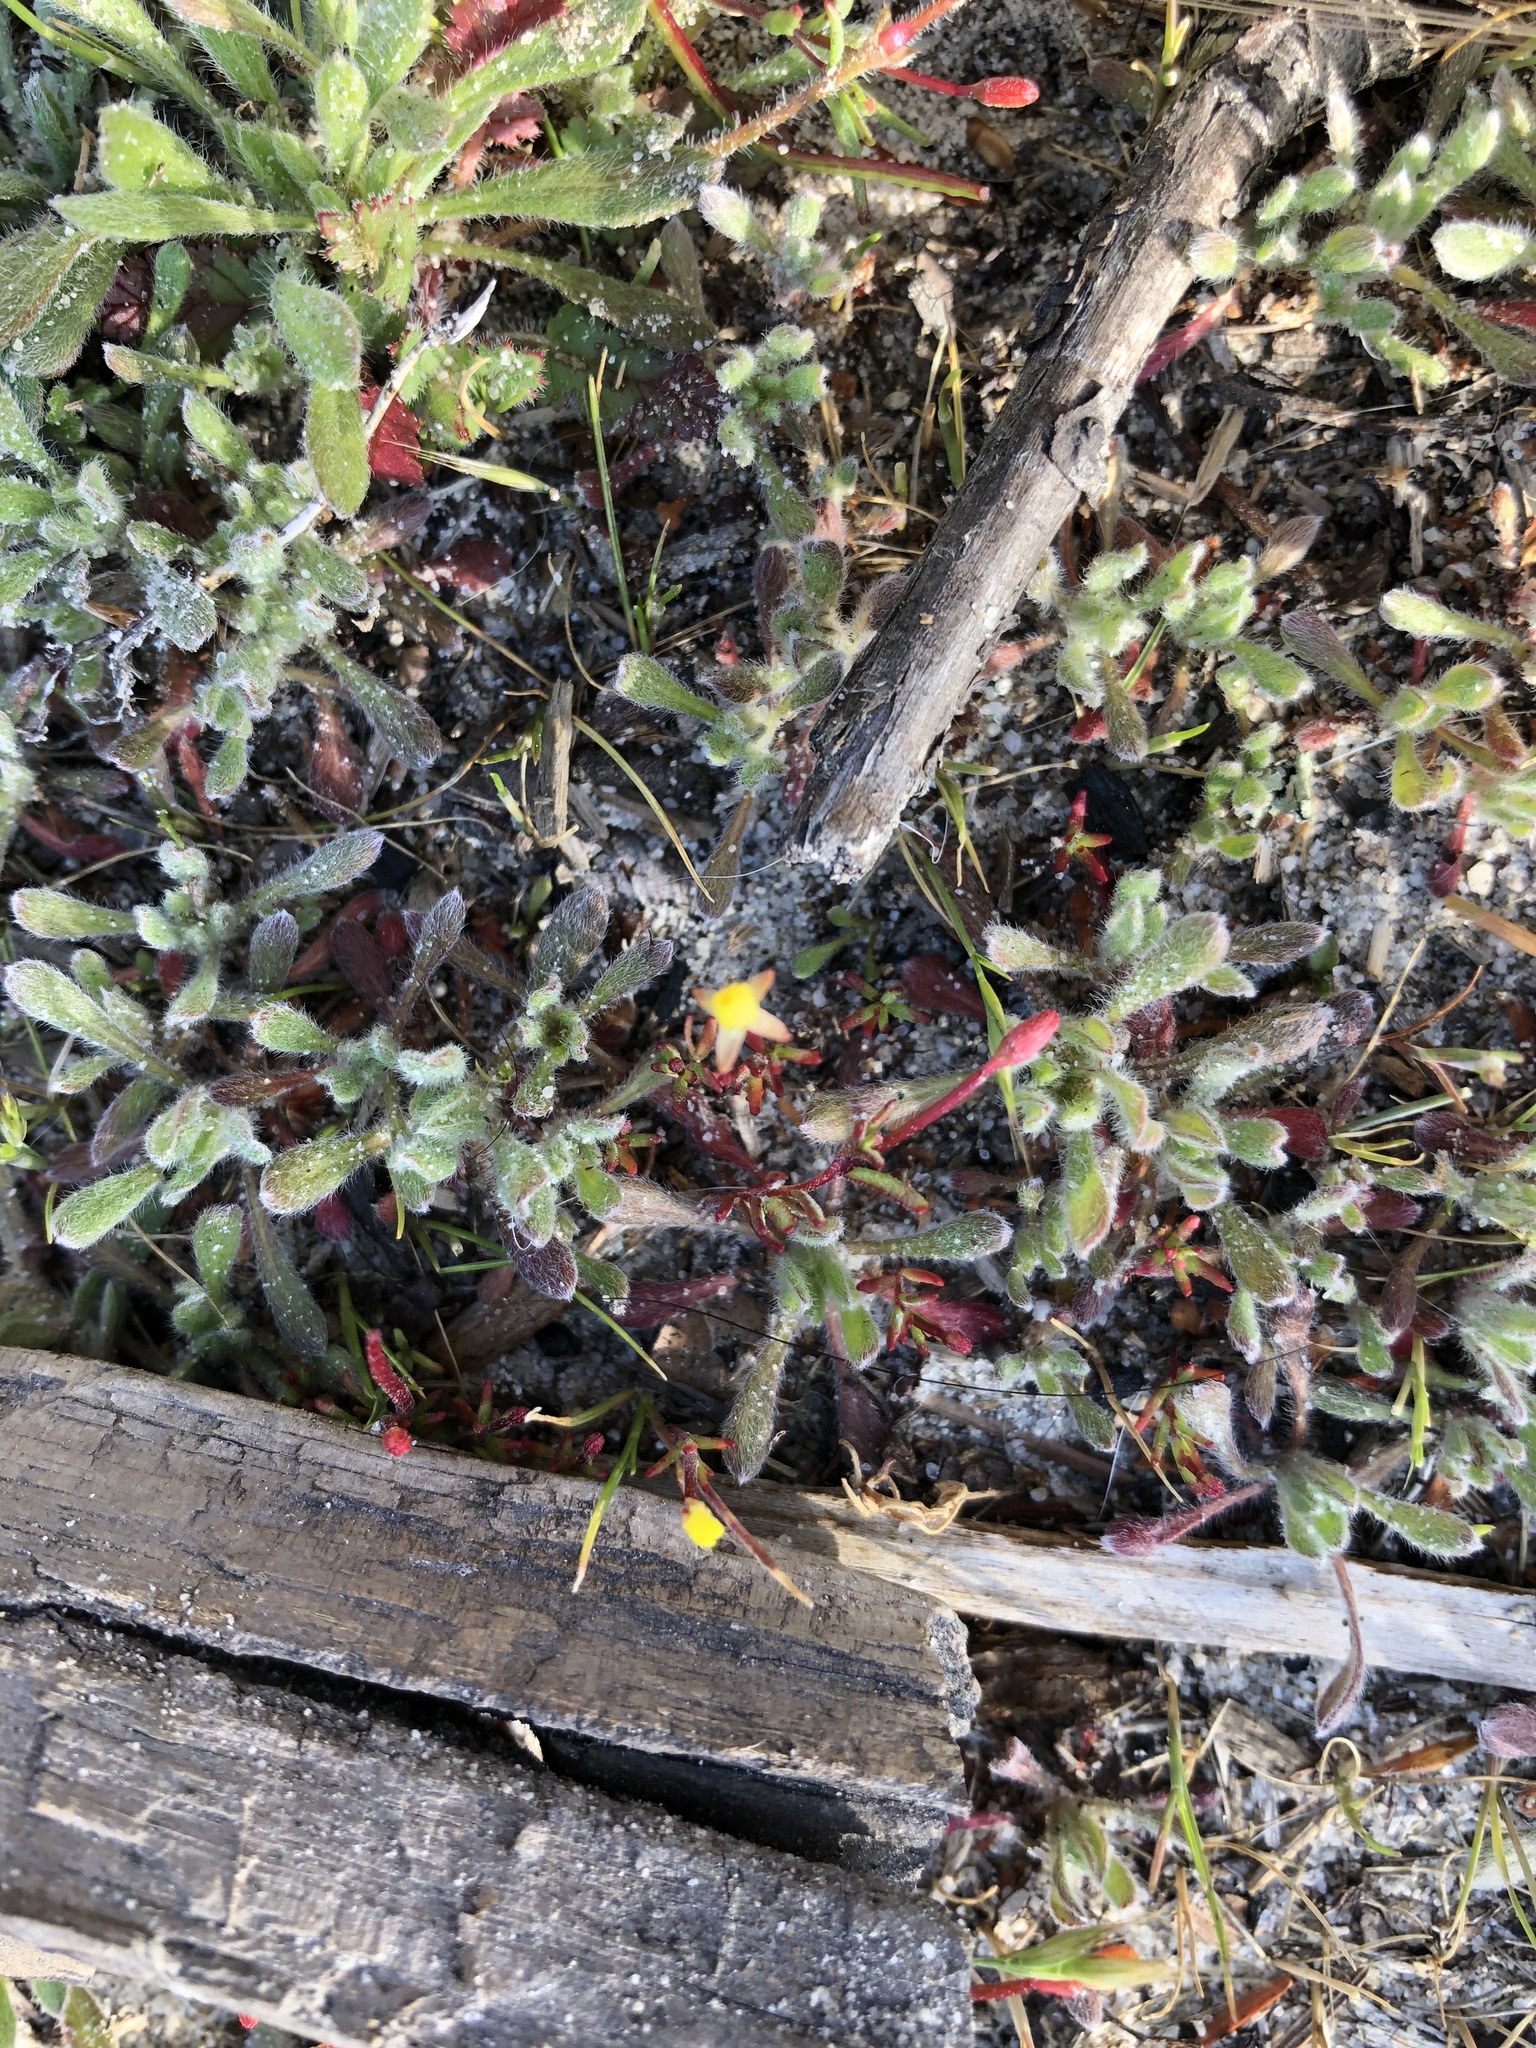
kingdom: Plantae
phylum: Tracheophyta
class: Magnoliopsida
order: Myrtales
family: Onagraceae
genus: Camissonia
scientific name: Camissonia strigulosa
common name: Contorted-primrose
